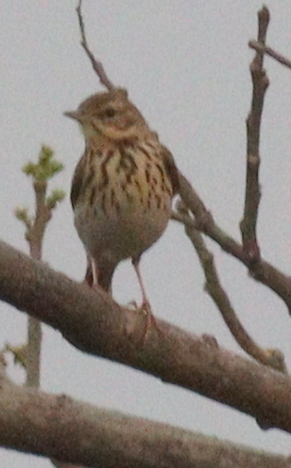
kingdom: Animalia
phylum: Chordata
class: Aves
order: Passeriformes
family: Motacillidae
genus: Anthus
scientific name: Anthus trivialis
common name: Tree pipit
